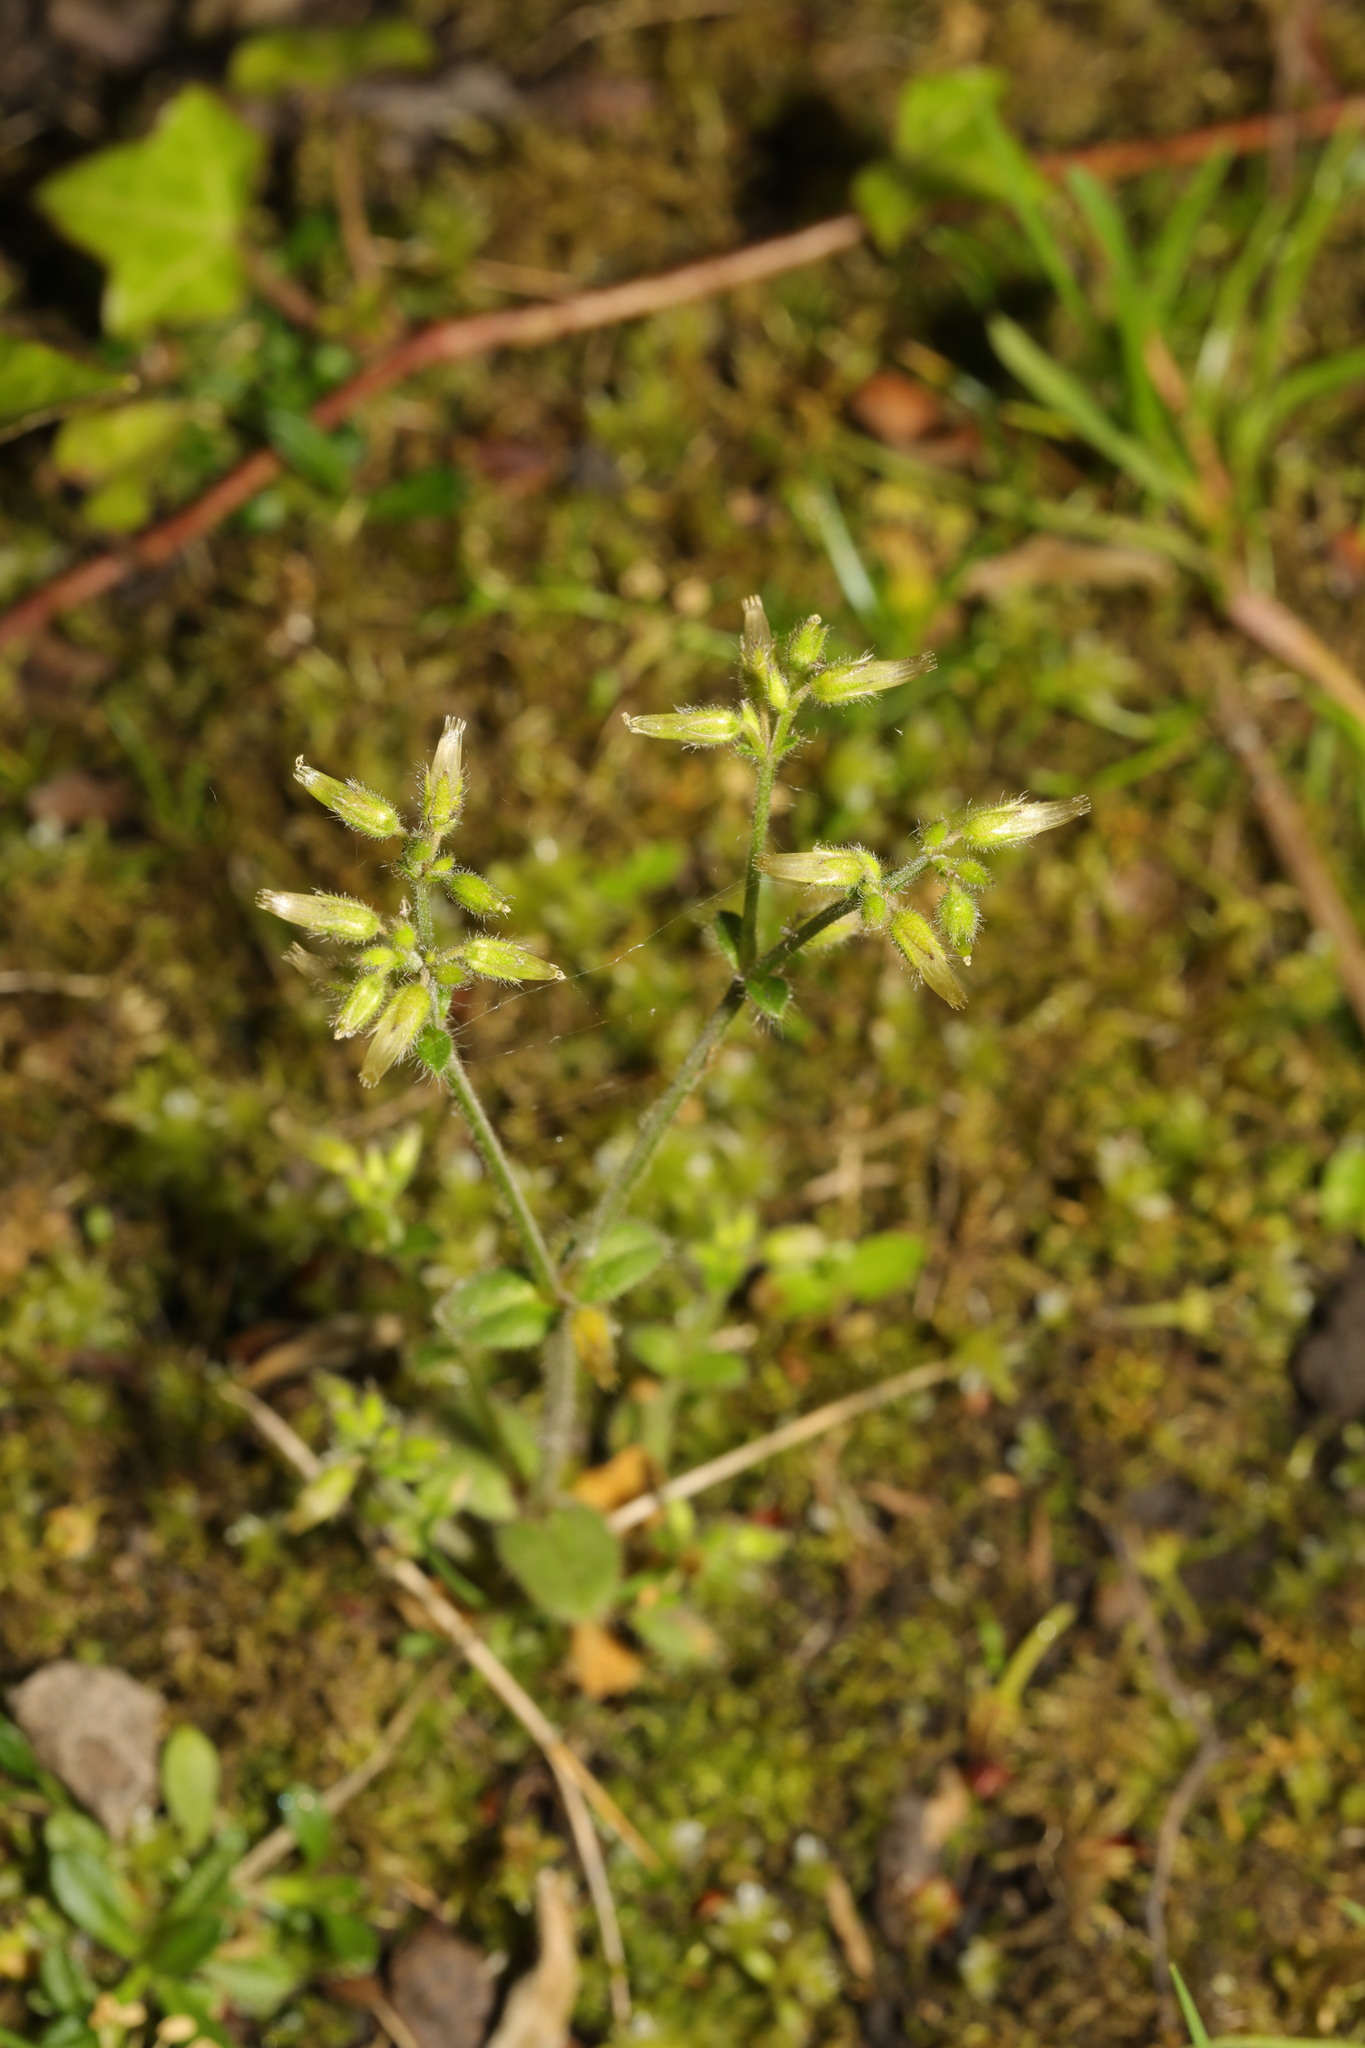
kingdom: Plantae
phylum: Tracheophyta
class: Magnoliopsida
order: Caryophyllales
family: Caryophyllaceae
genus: Cerastium
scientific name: Cerastium glomeratum
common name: Sticky chickweed
